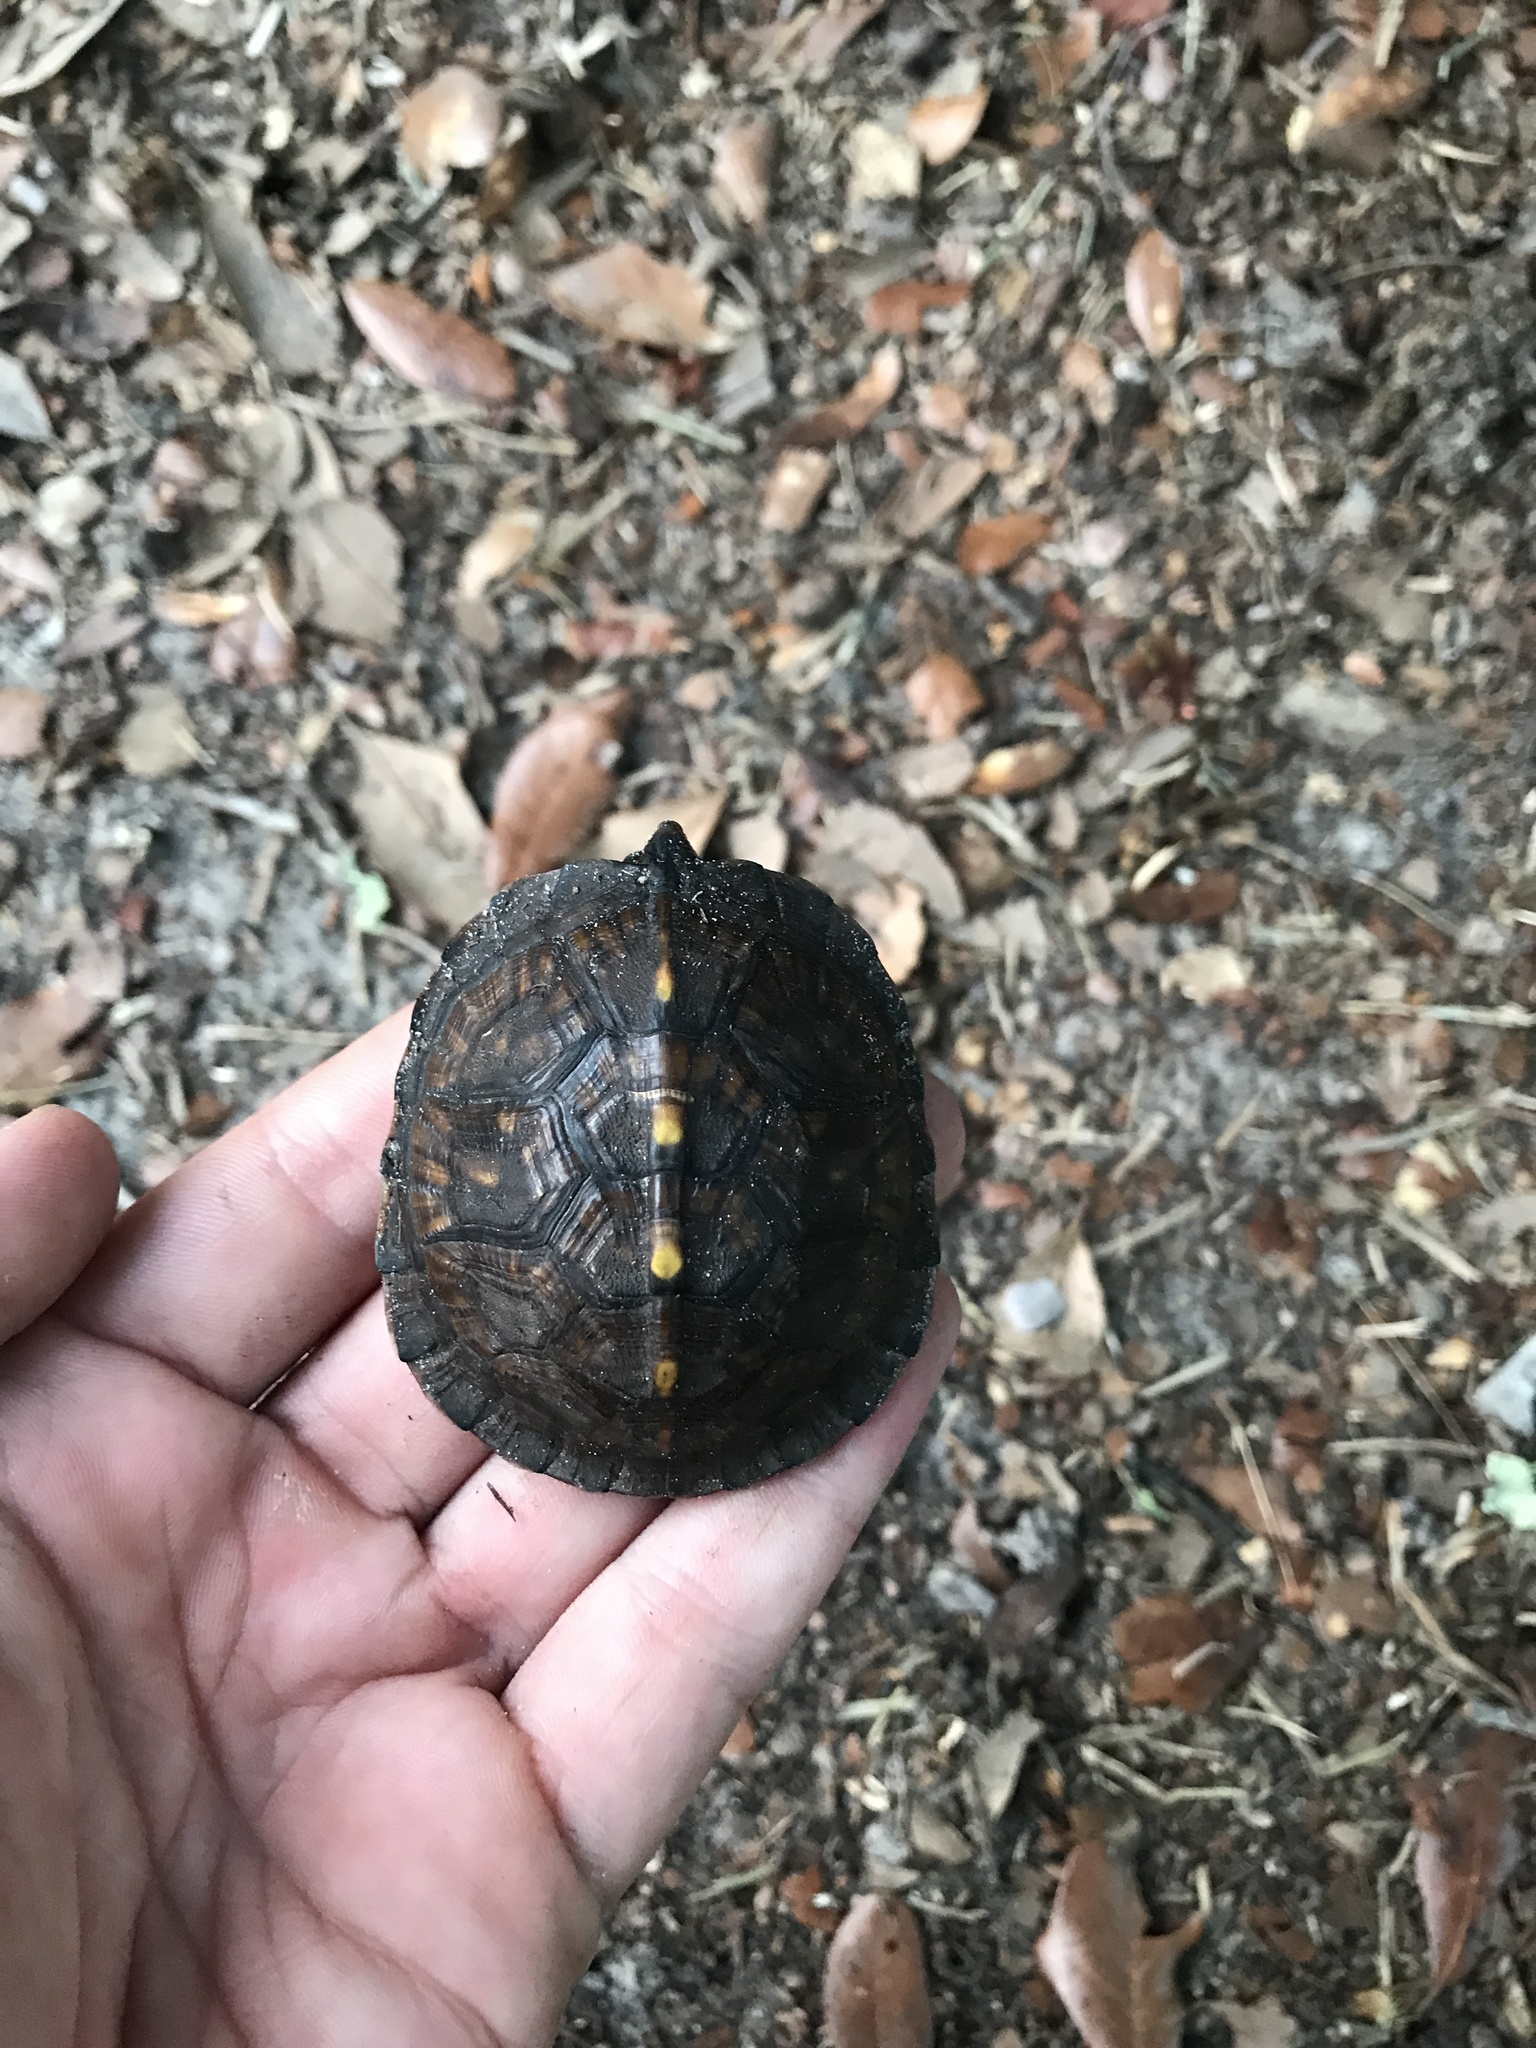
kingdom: Animalia
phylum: Chordata
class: Testudines
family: Emydidae
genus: Terrapene
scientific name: Terrapene carolina
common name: Common box turtle
